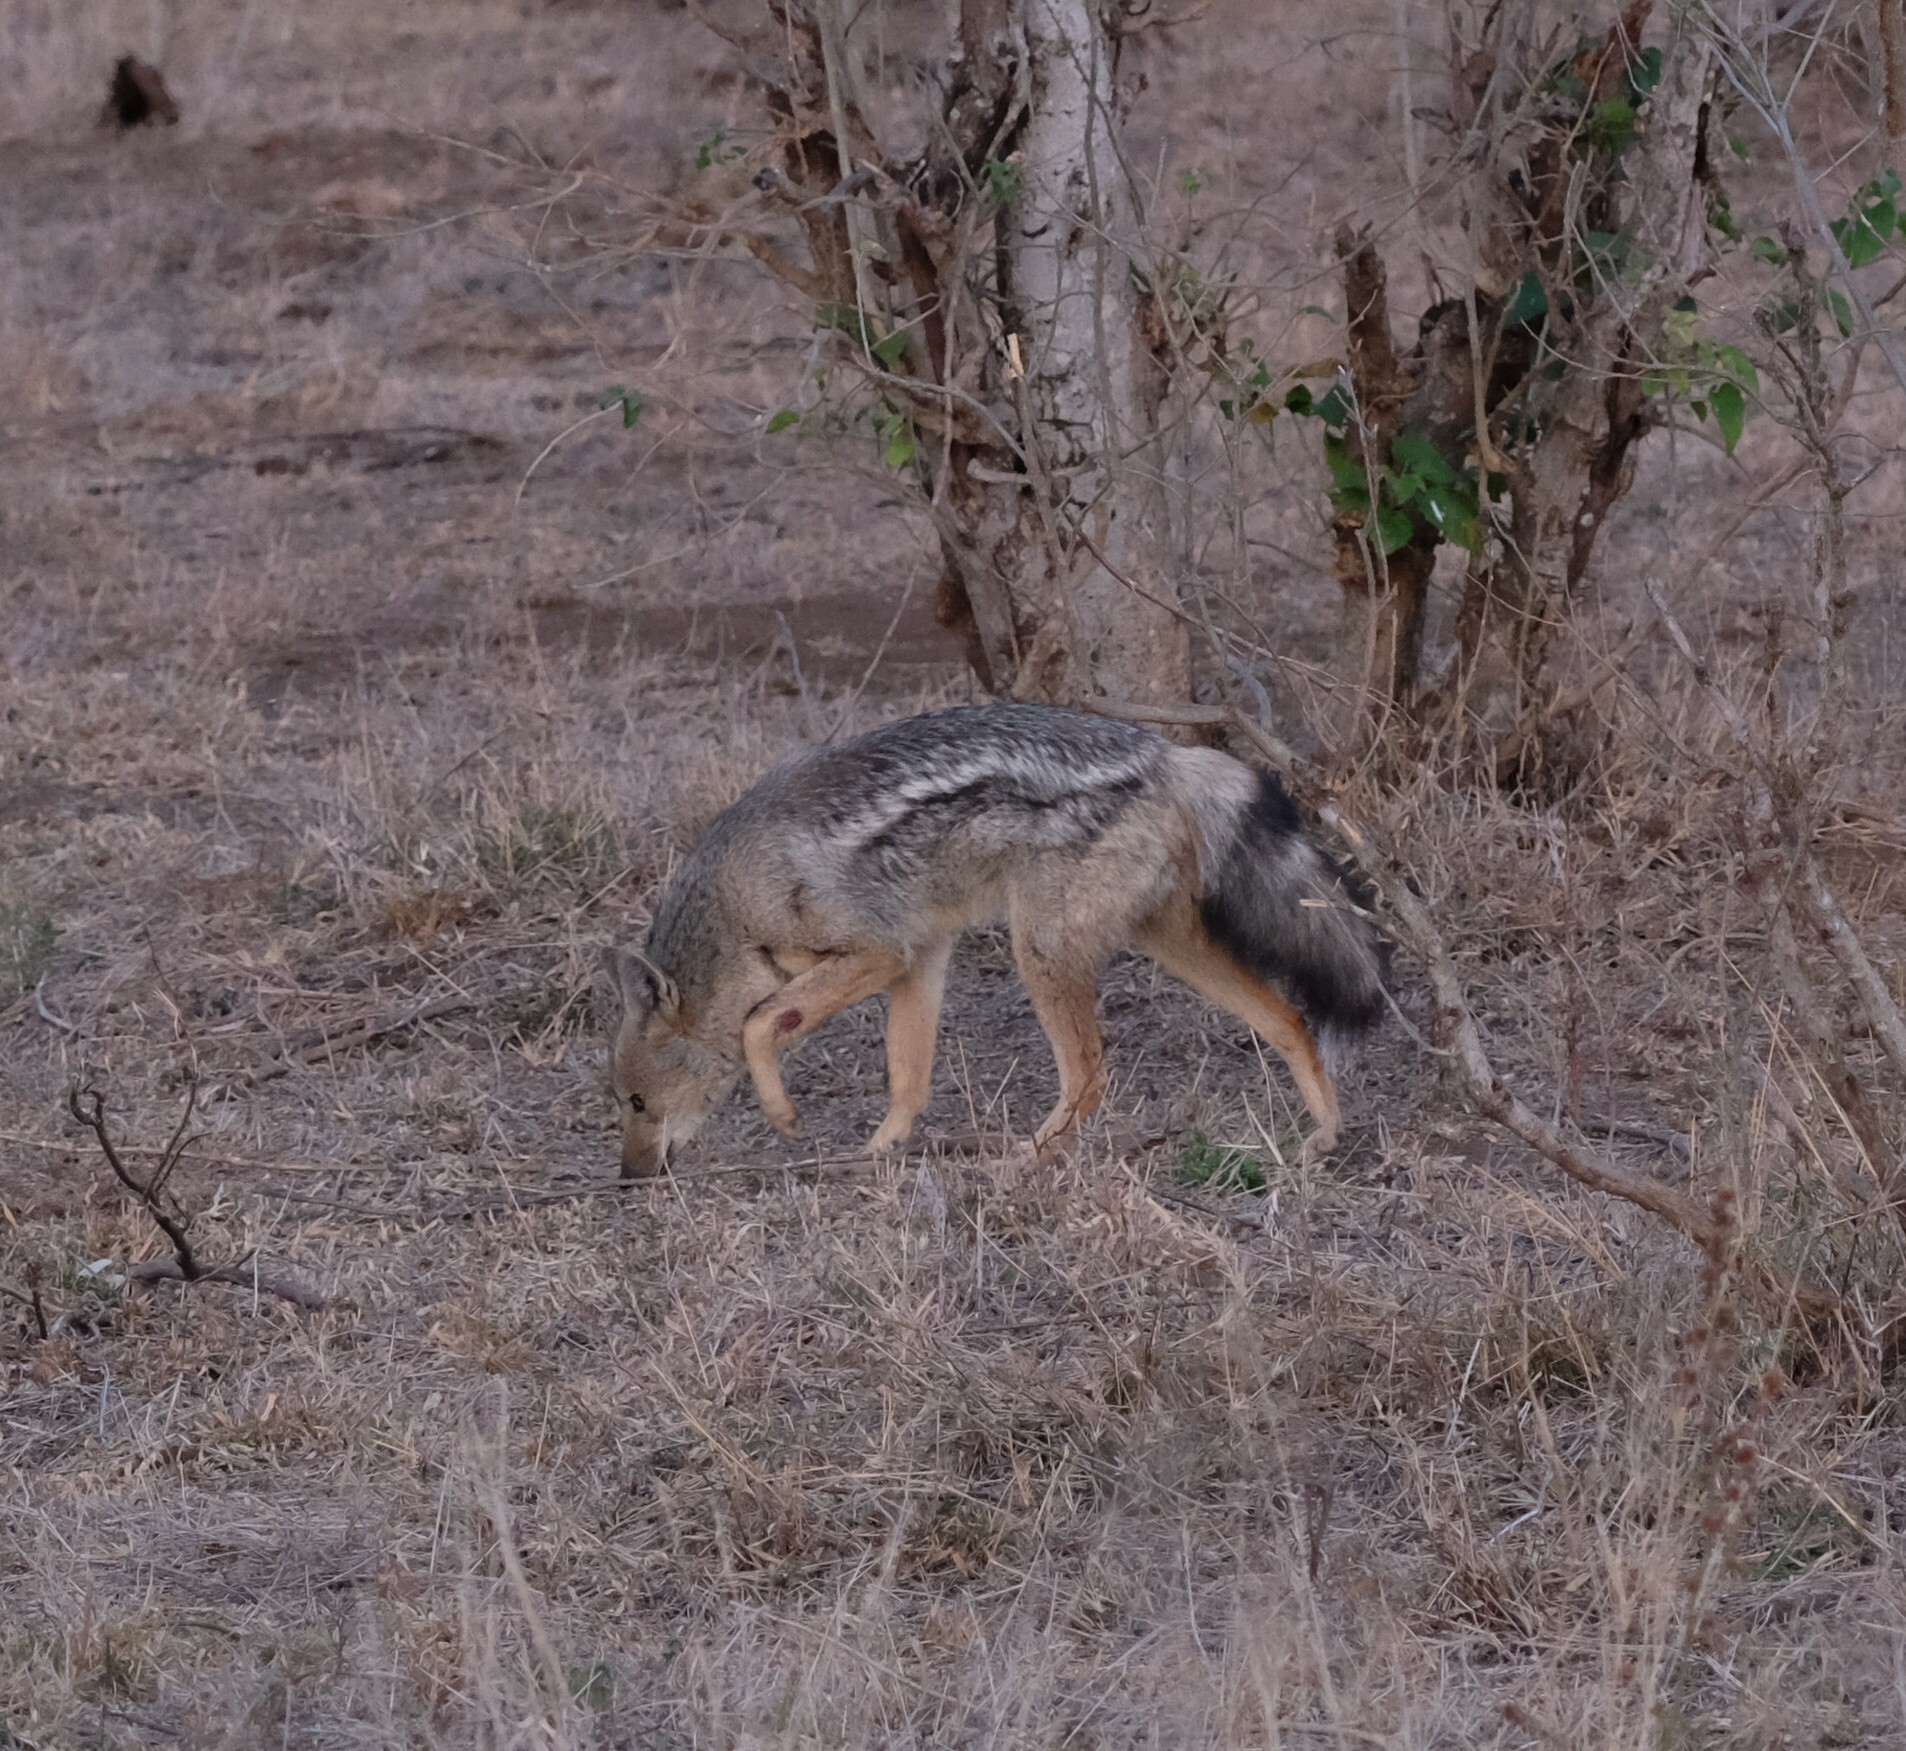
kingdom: Animalia
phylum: Chordata
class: Mammalia
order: Carnivora
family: Canidae
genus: Lupulella
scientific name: Lupulella
